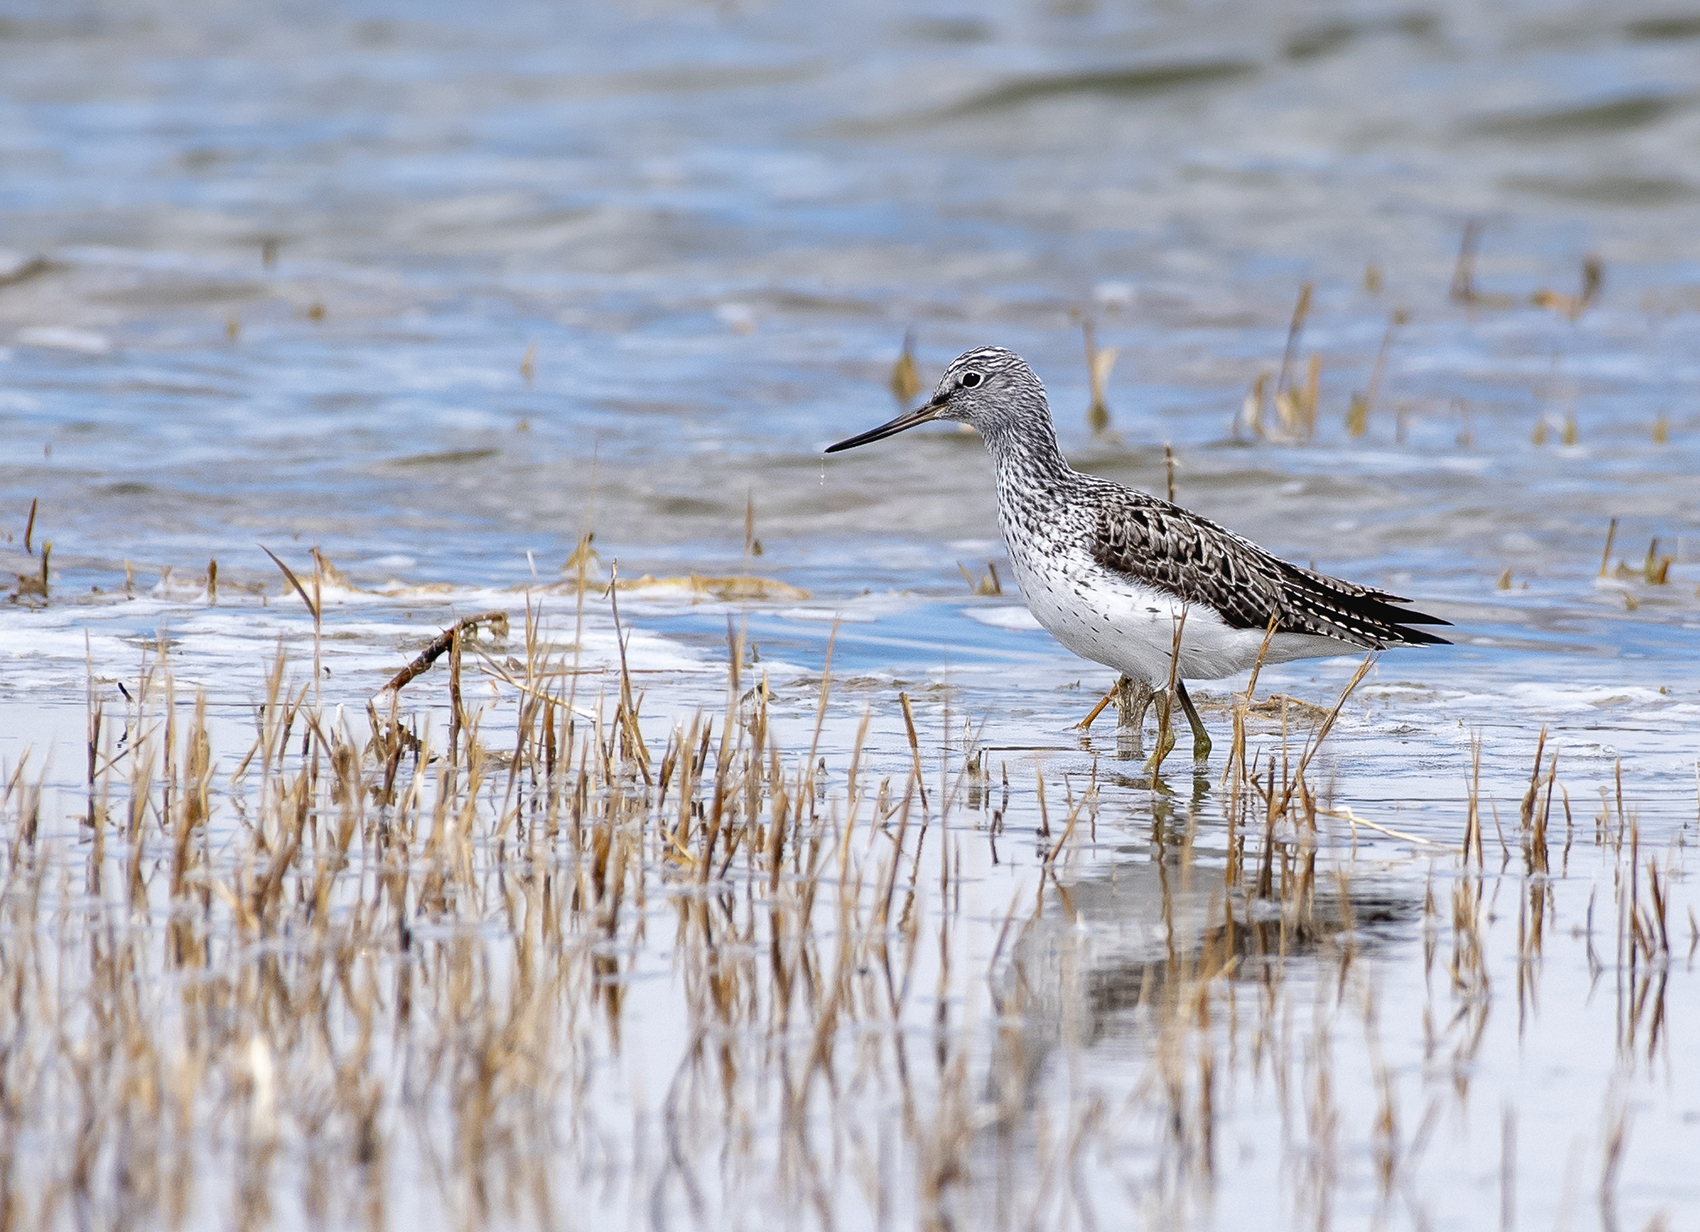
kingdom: Animalia
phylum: Chordata
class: Aves
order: Charadriiformes
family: Scolopacidae
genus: Tringa
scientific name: Tringa nebularia
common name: Common greenshank
